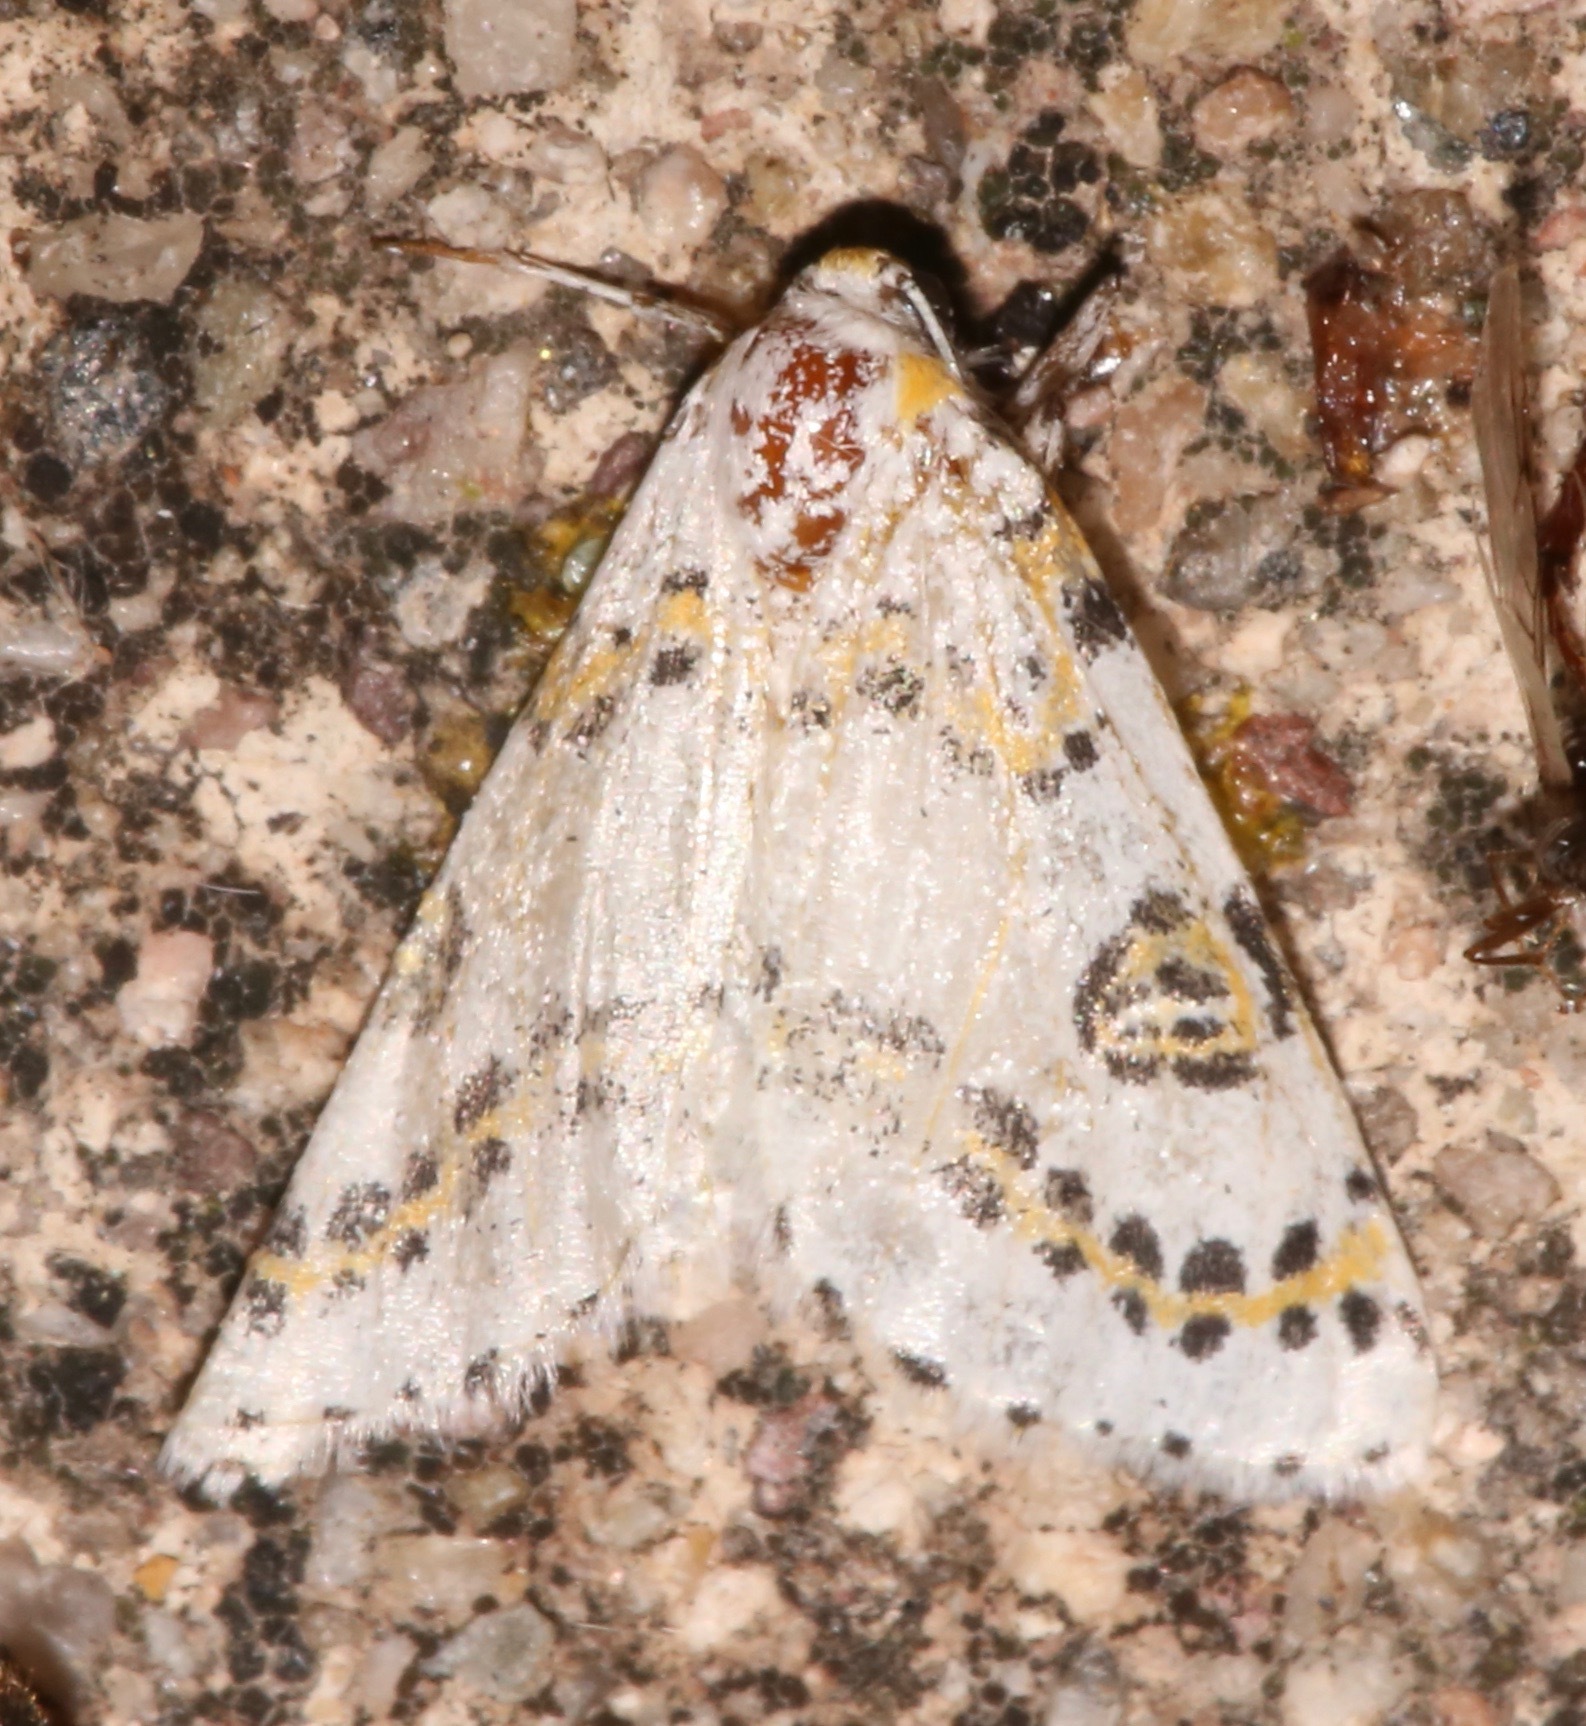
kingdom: Animalia
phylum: Arthropoda
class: Insecta
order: Lepidoptera
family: Geometridae
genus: Philtraea
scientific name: Philtraea elegantaria
